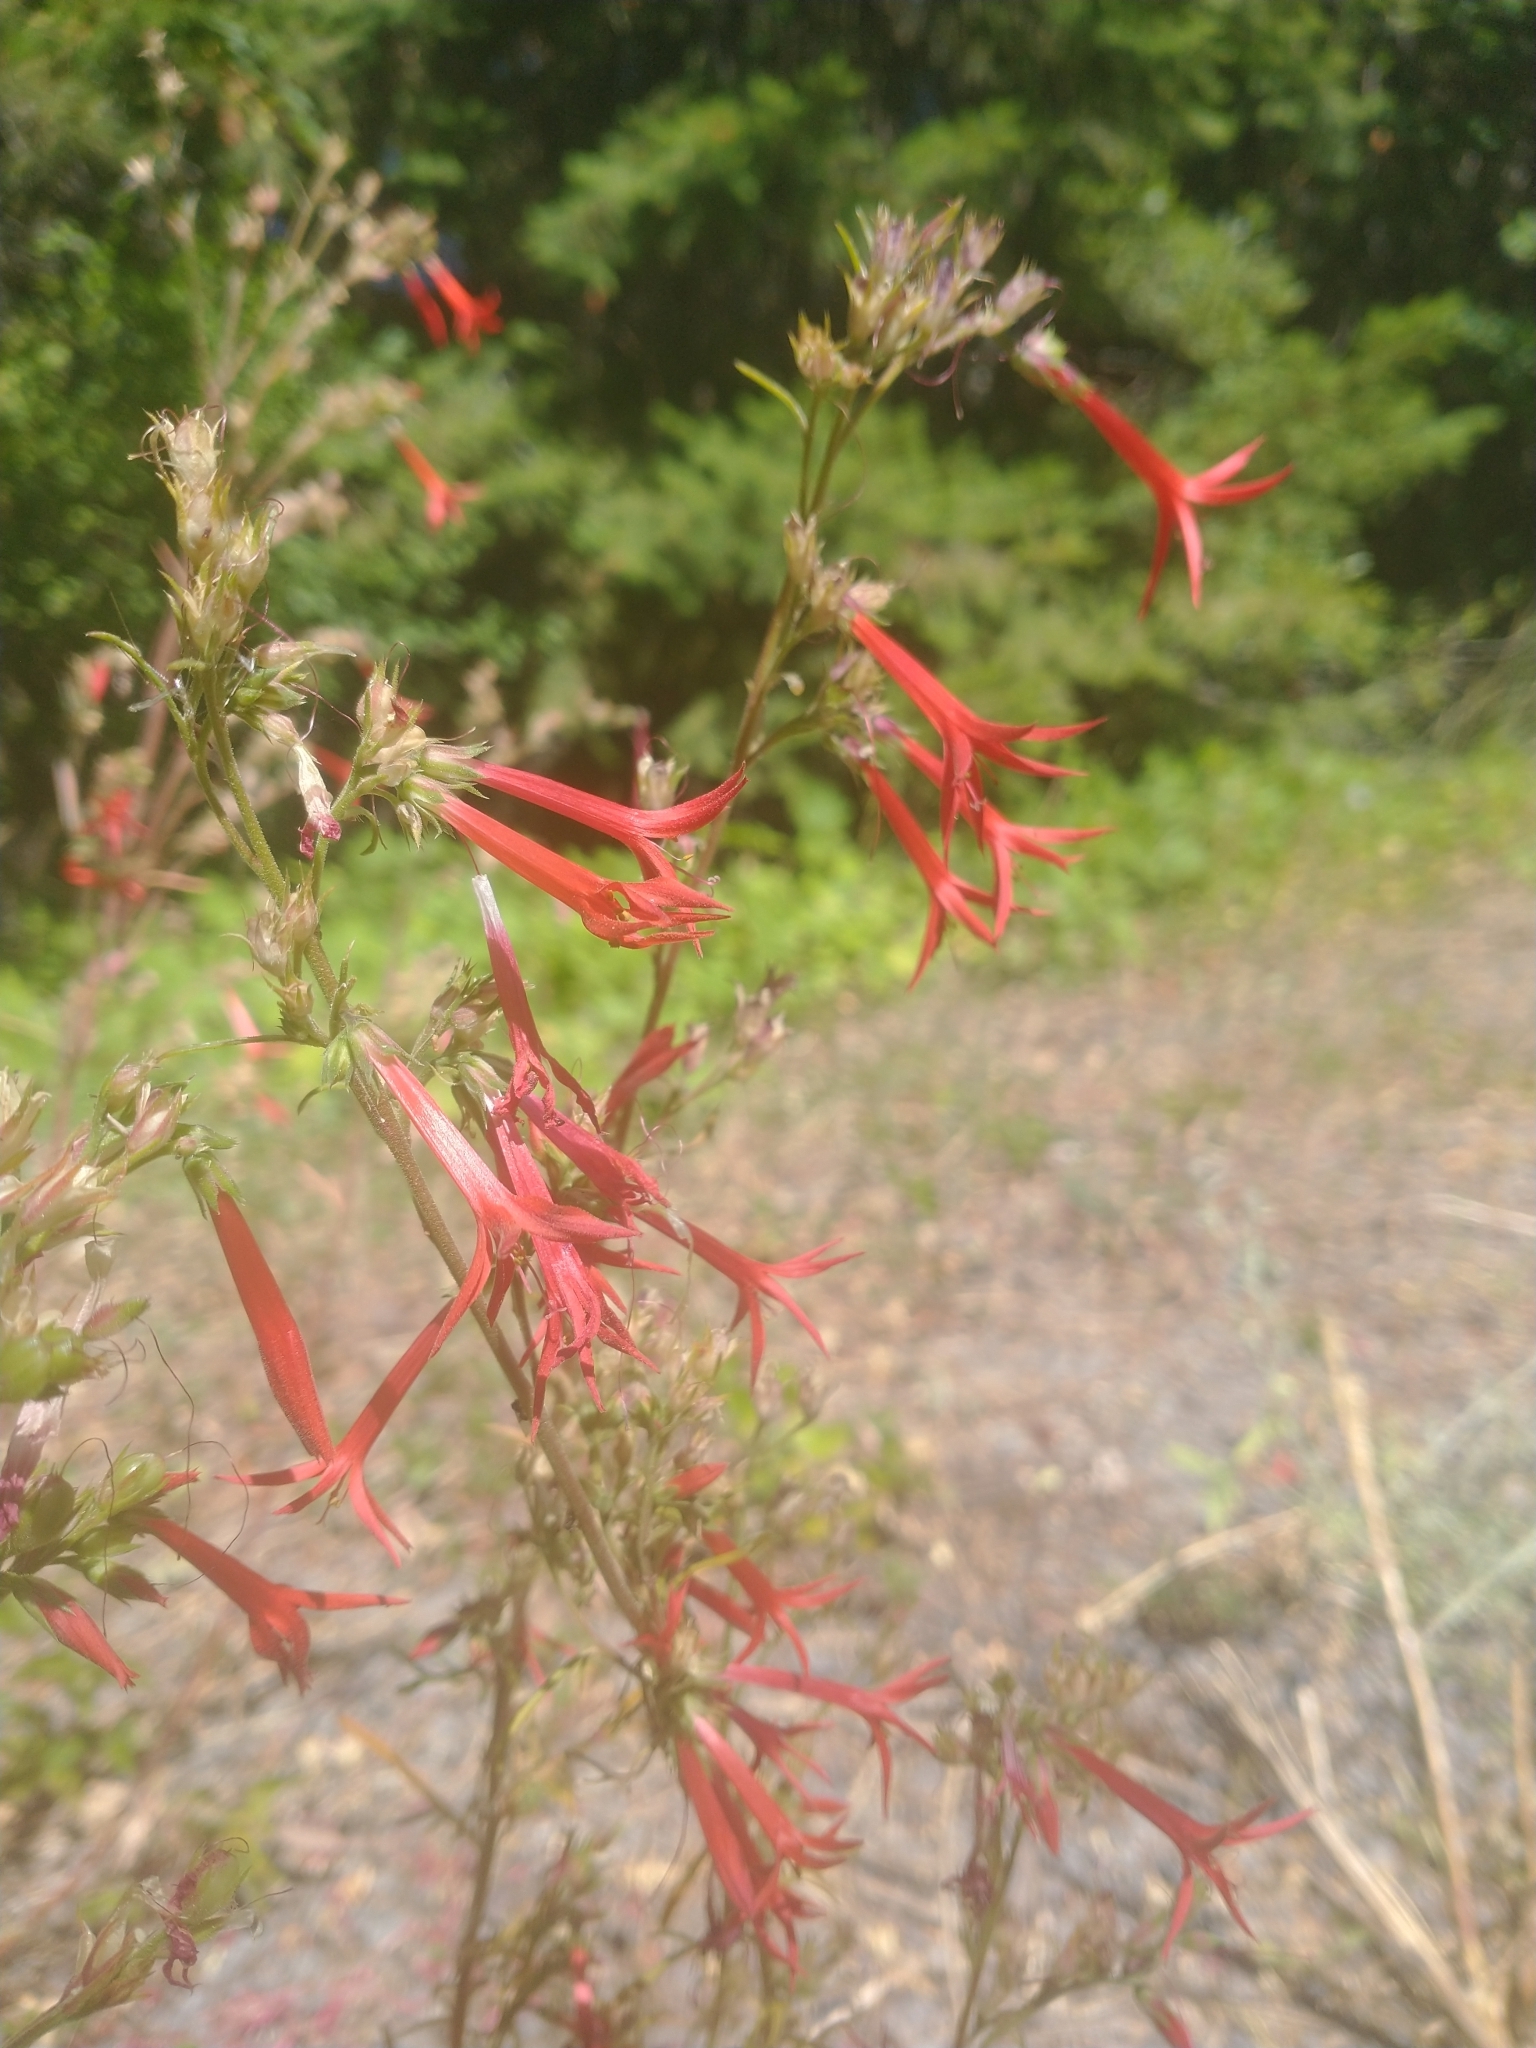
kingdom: Plantae
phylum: Tracheophyta
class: Magnoliopsida
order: Ericales
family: Polemoniaceae
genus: Ipomopsis
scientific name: Ipomopsis aggregata
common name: Scarlet gilia
